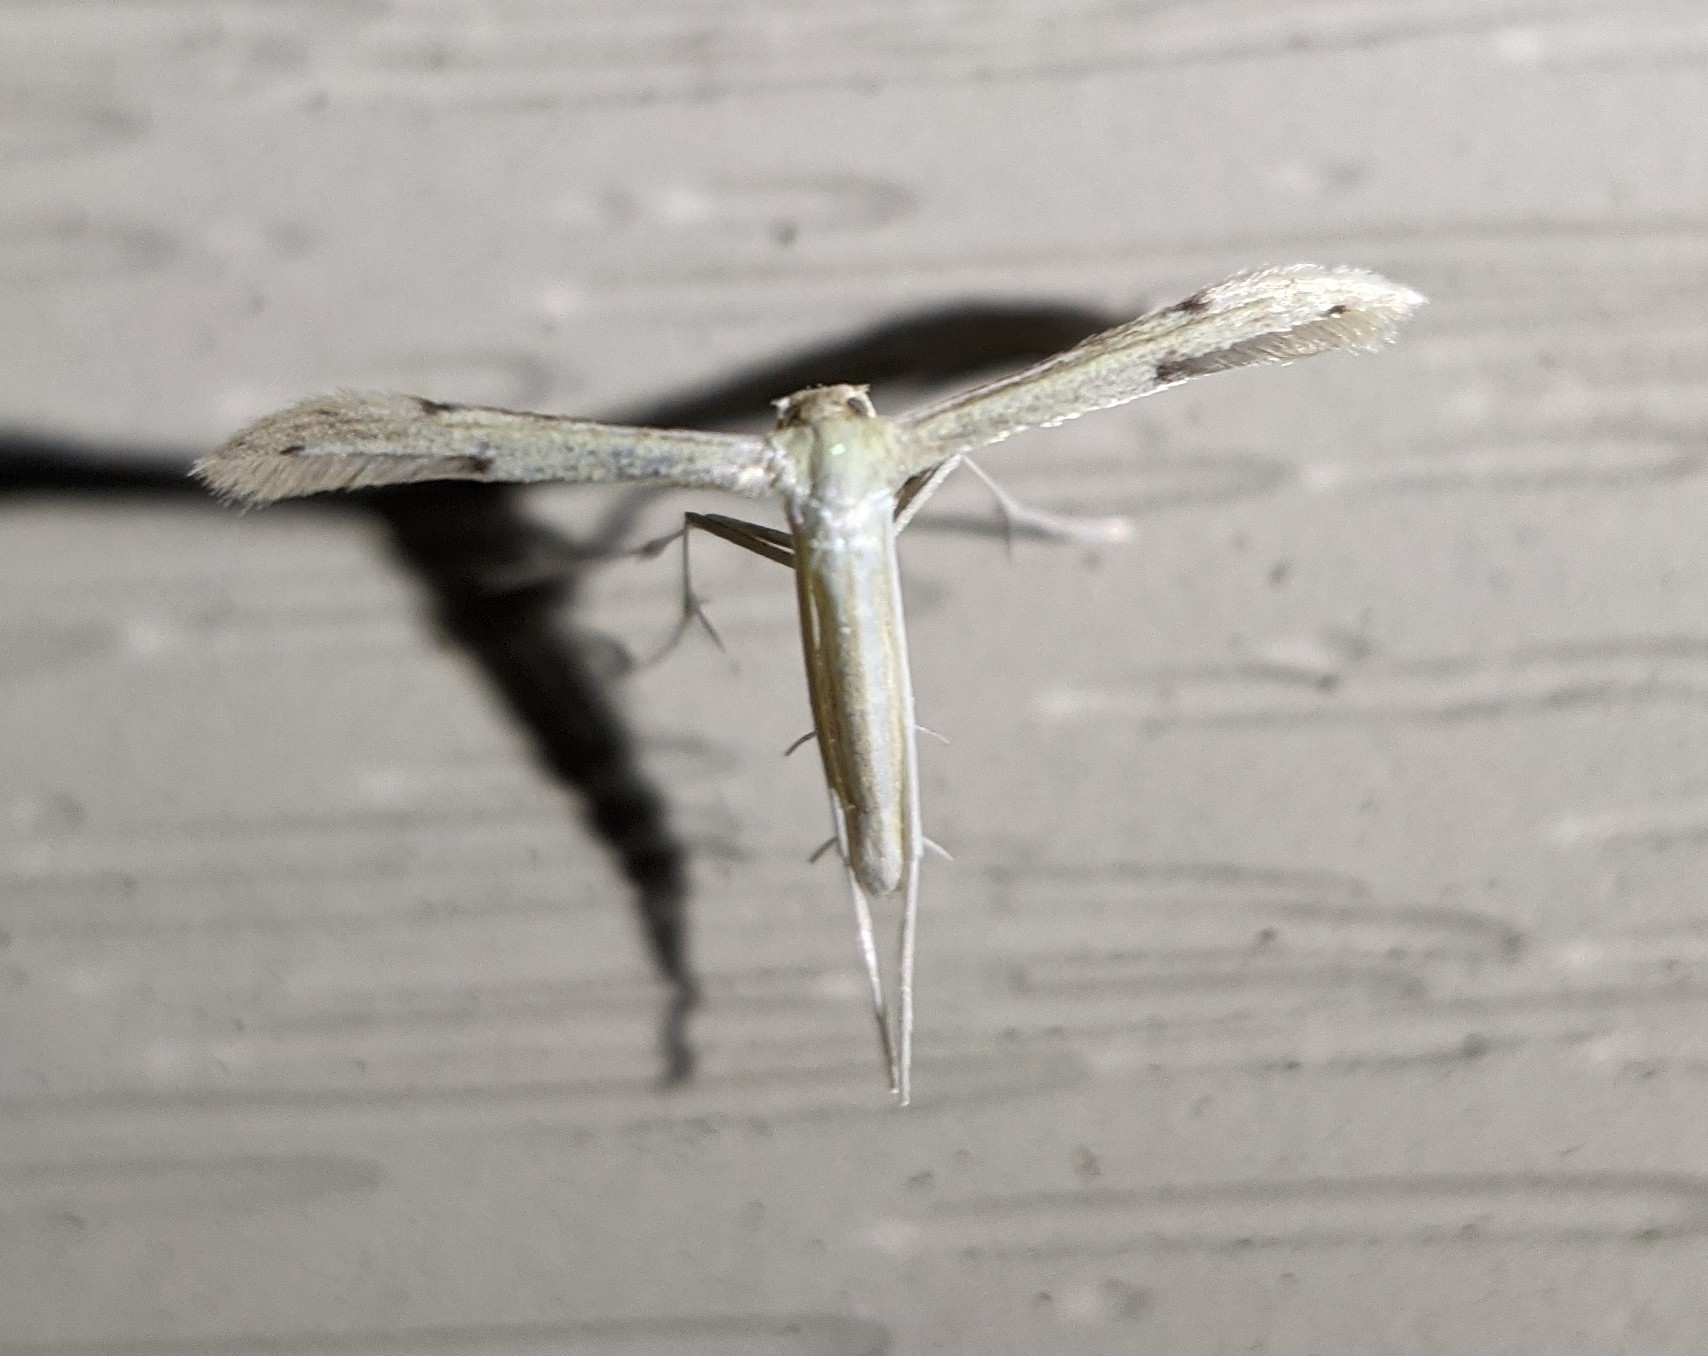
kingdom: Animalia
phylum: Arthropoda
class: Insecta
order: Lepidoptera
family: Pterophoridae
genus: Adaina
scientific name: Adaina
